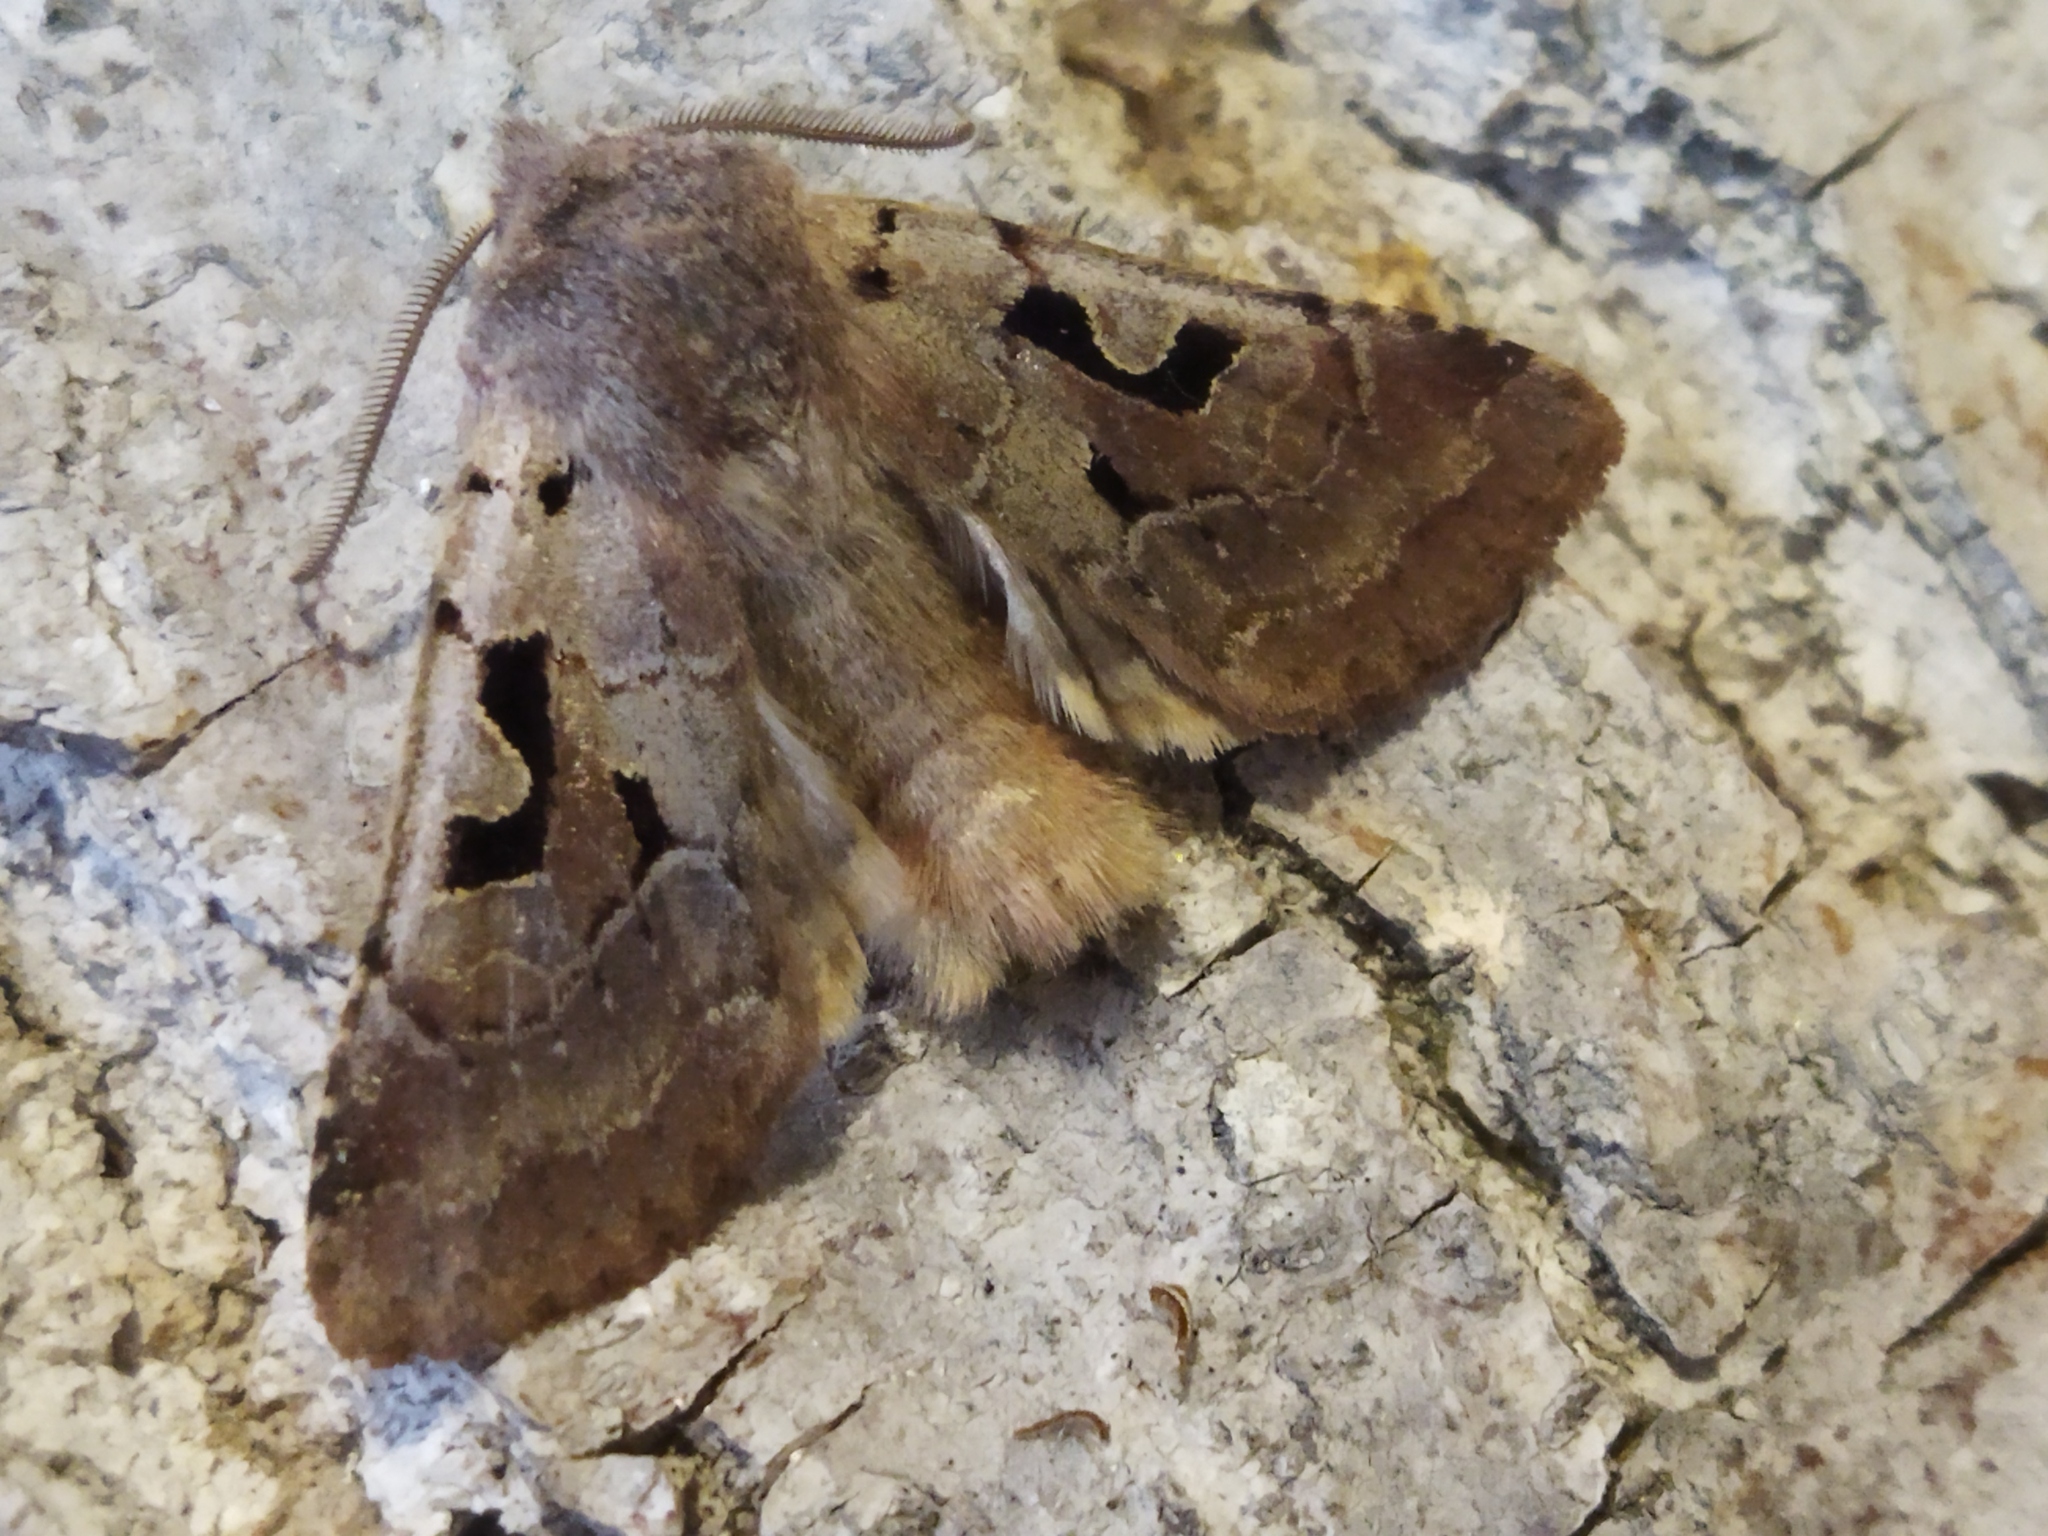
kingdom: Animalia
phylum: Arthropoda
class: Insecta
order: Lepidoptera
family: Noctuidae
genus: Orthosia
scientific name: Orthosia gothica
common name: Hebrew character
